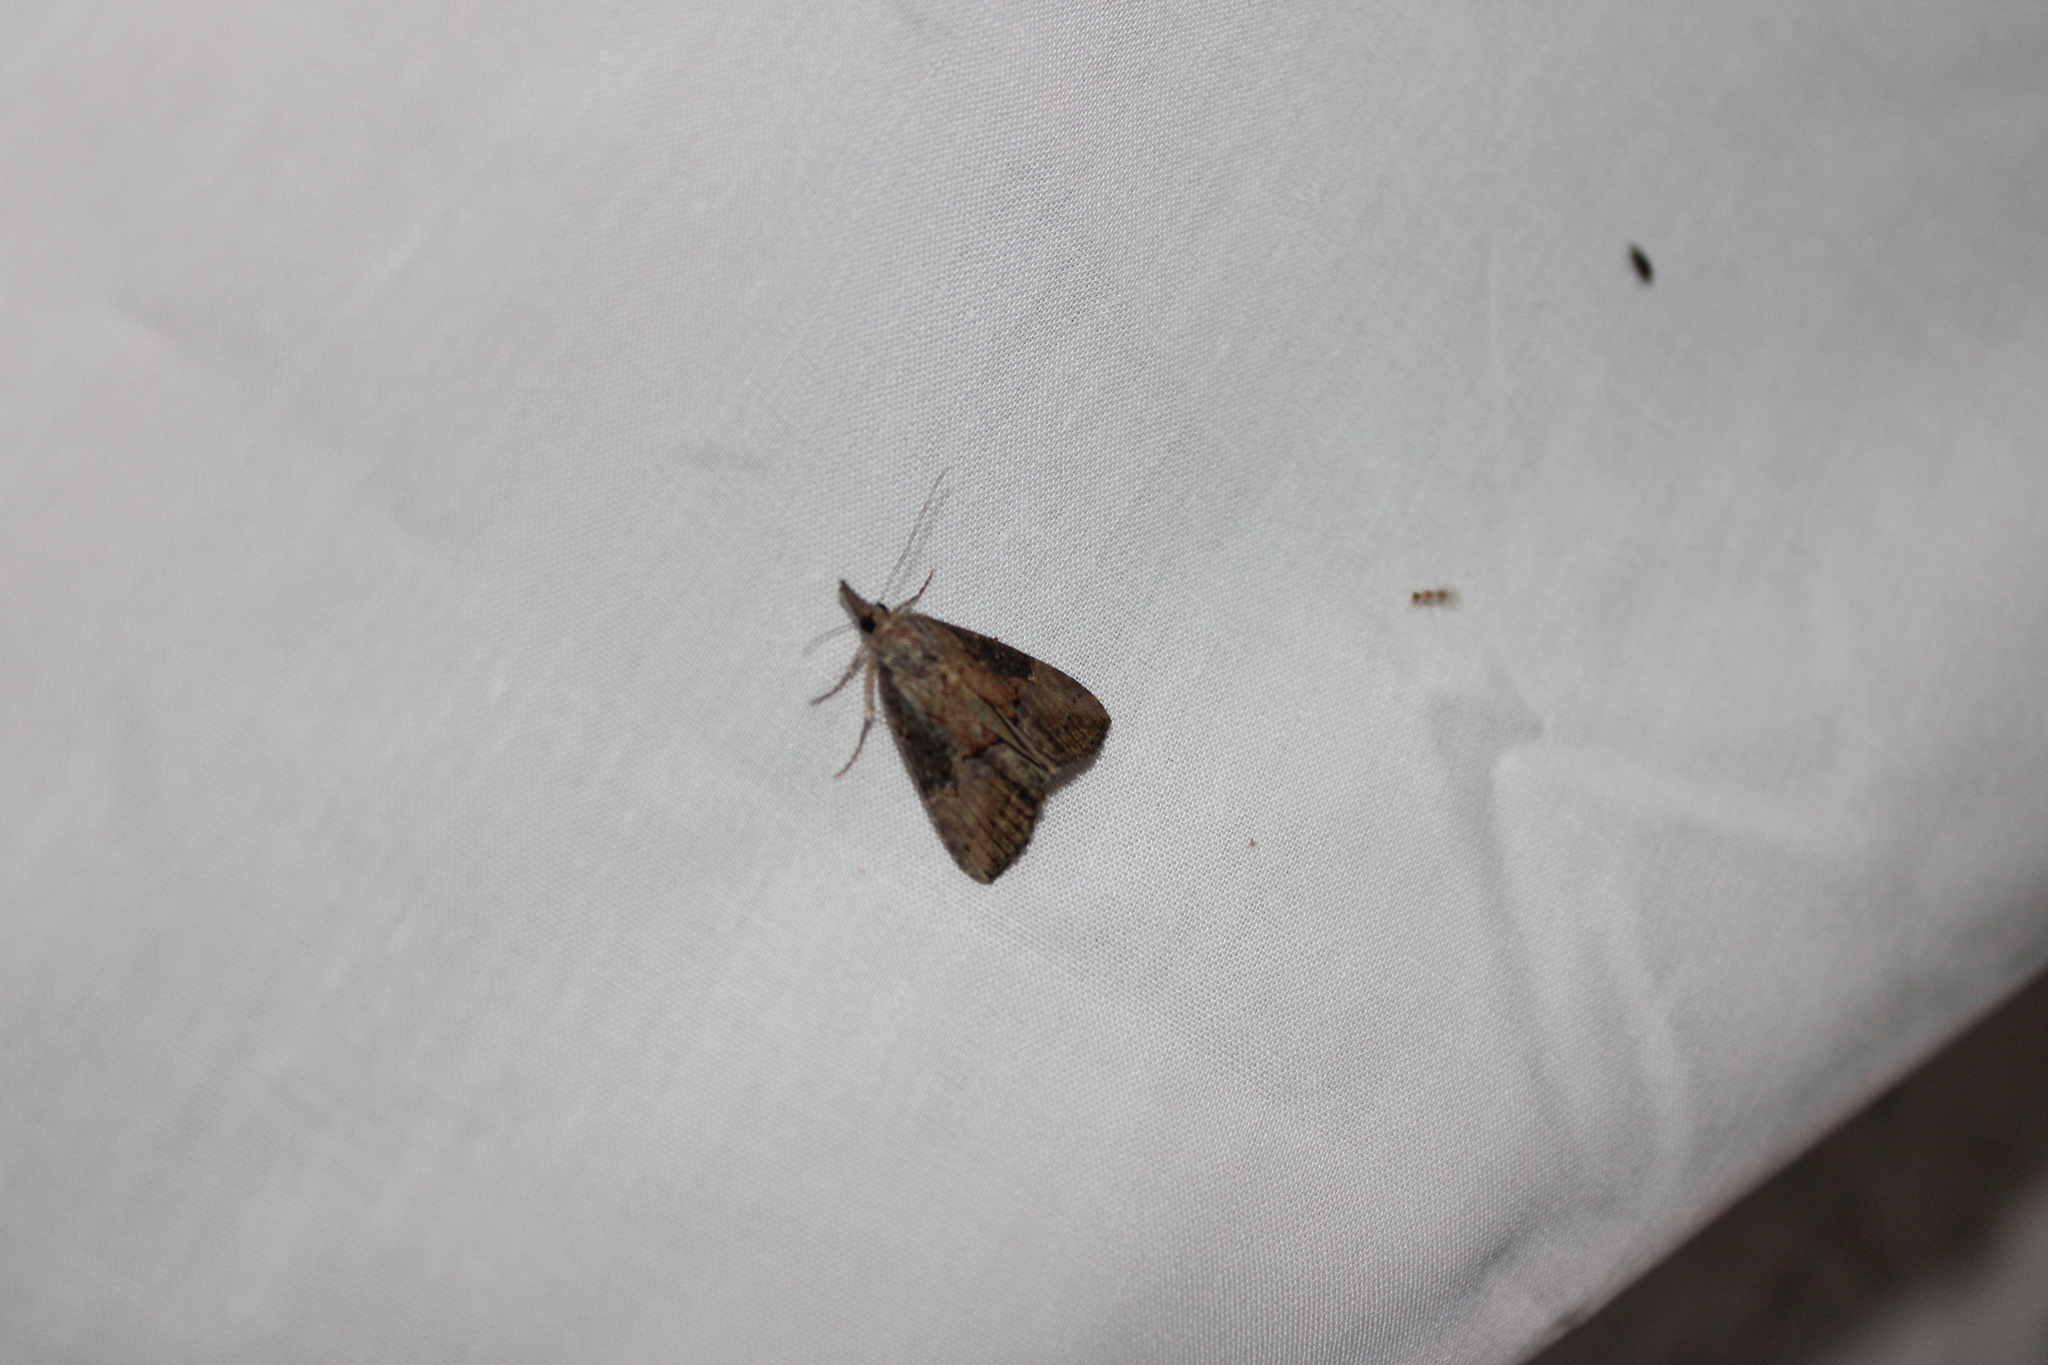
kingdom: Animalia
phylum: Arthropoda
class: Insecta
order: Lepidoptera
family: Erebidae
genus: Hypena
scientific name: Hypena scabra
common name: Green cloverworm
